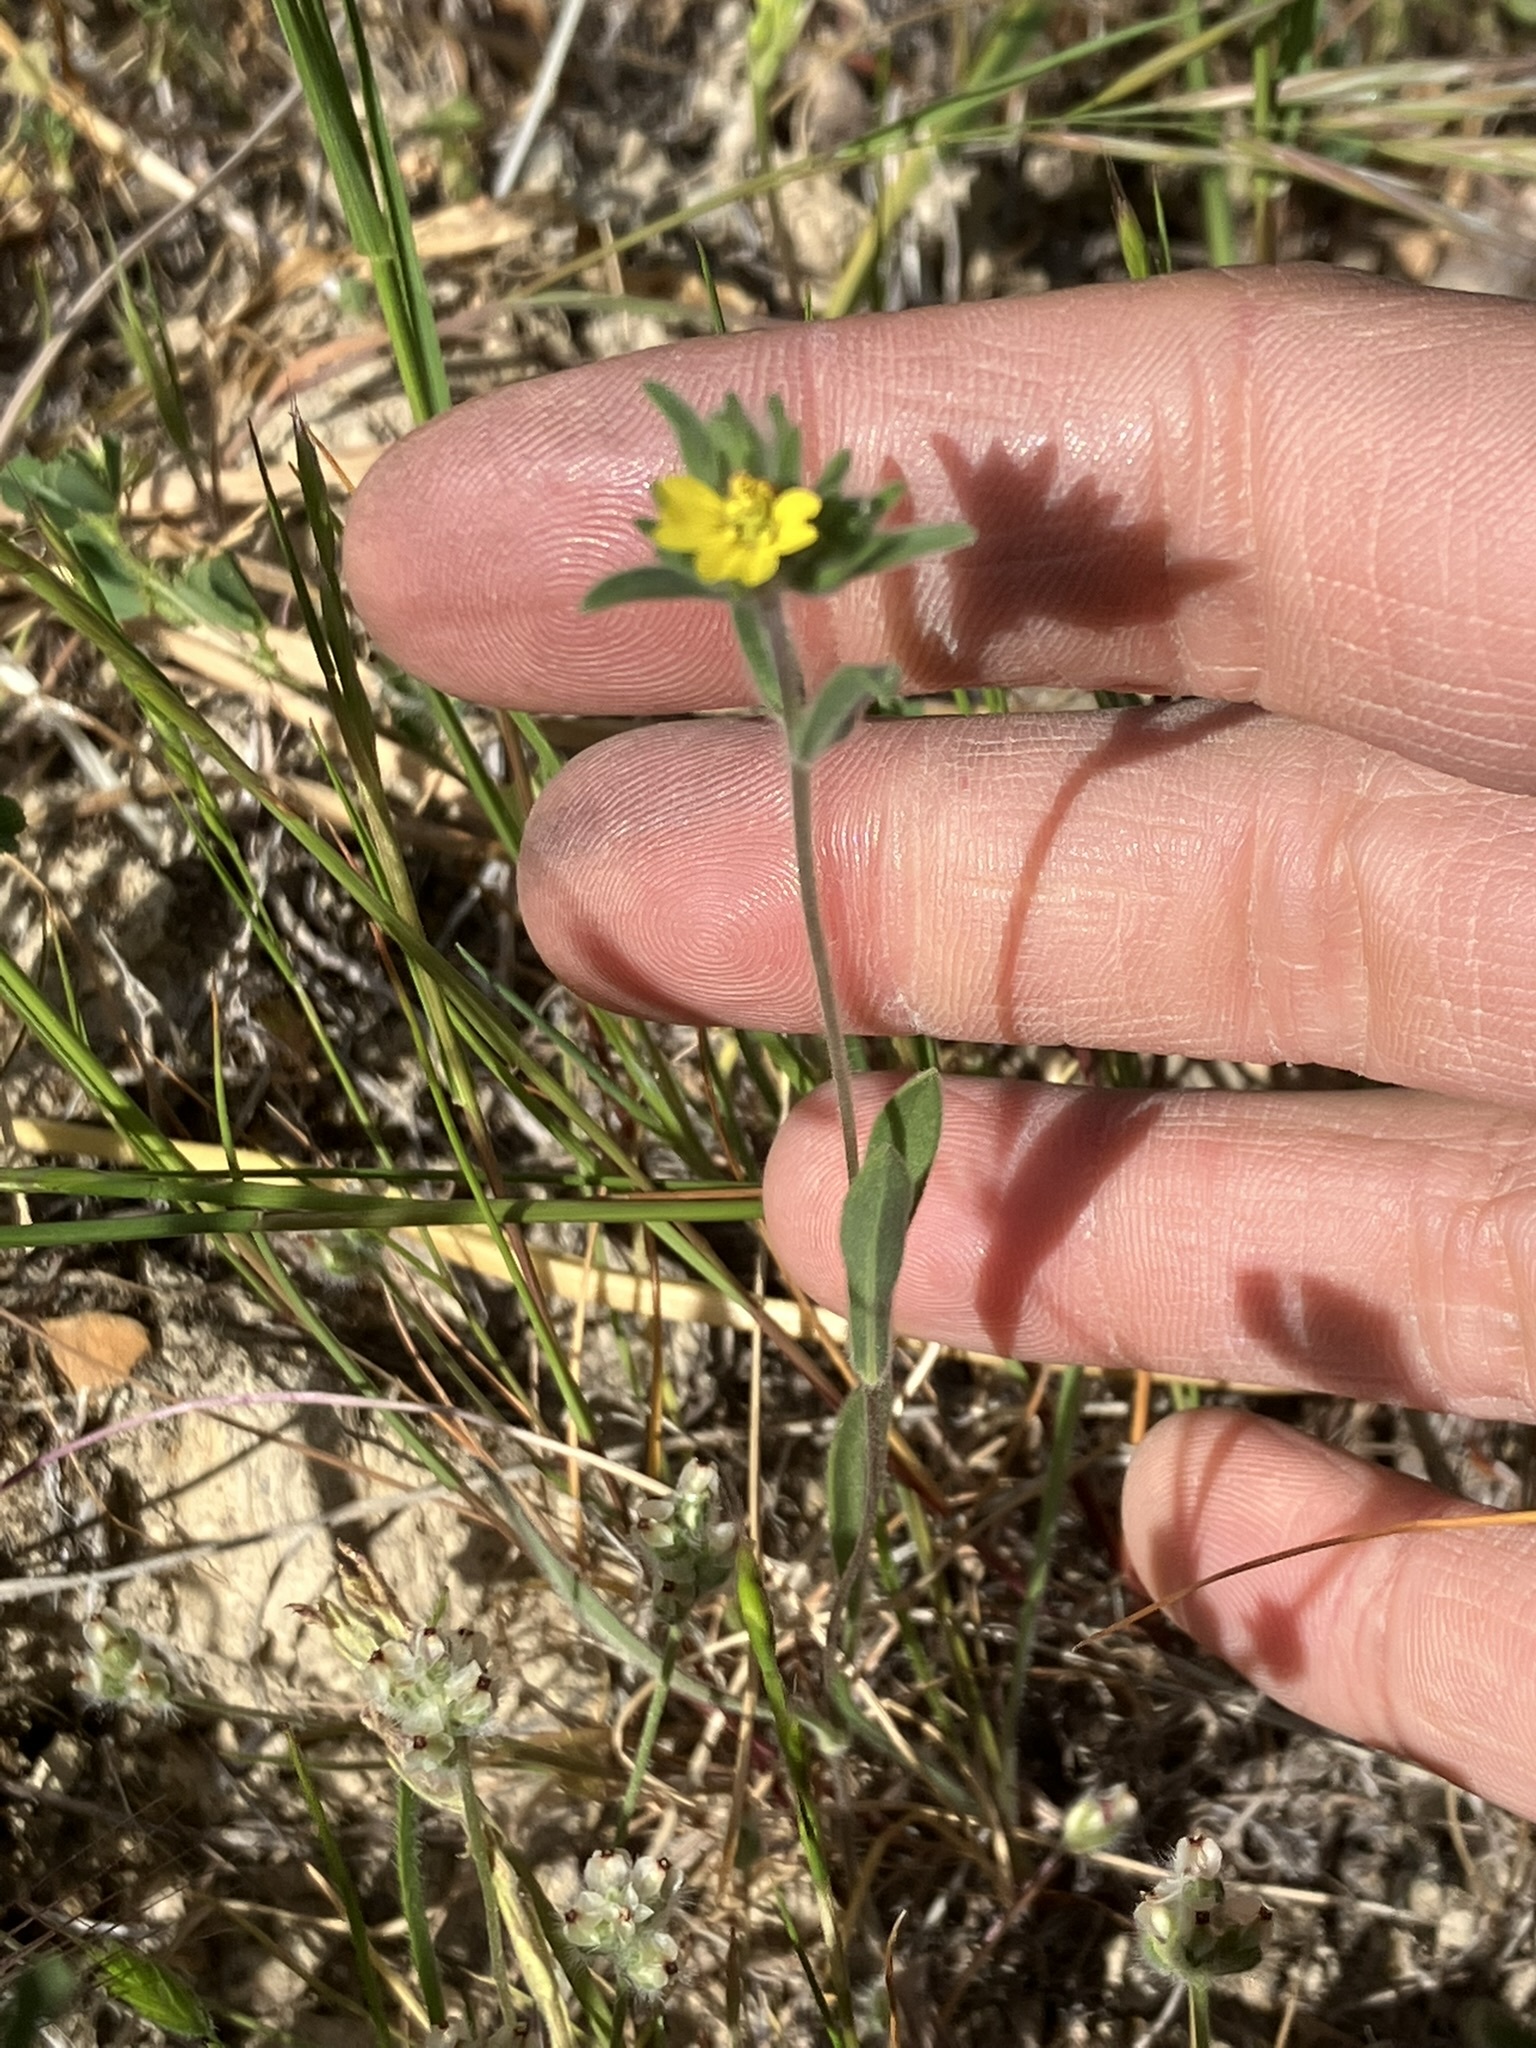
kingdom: Plantae
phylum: Tracheophyta
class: Magnoliopsida
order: Asterales
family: Asteraceae
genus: Lagophylla
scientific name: Lagophylla ramosissima
